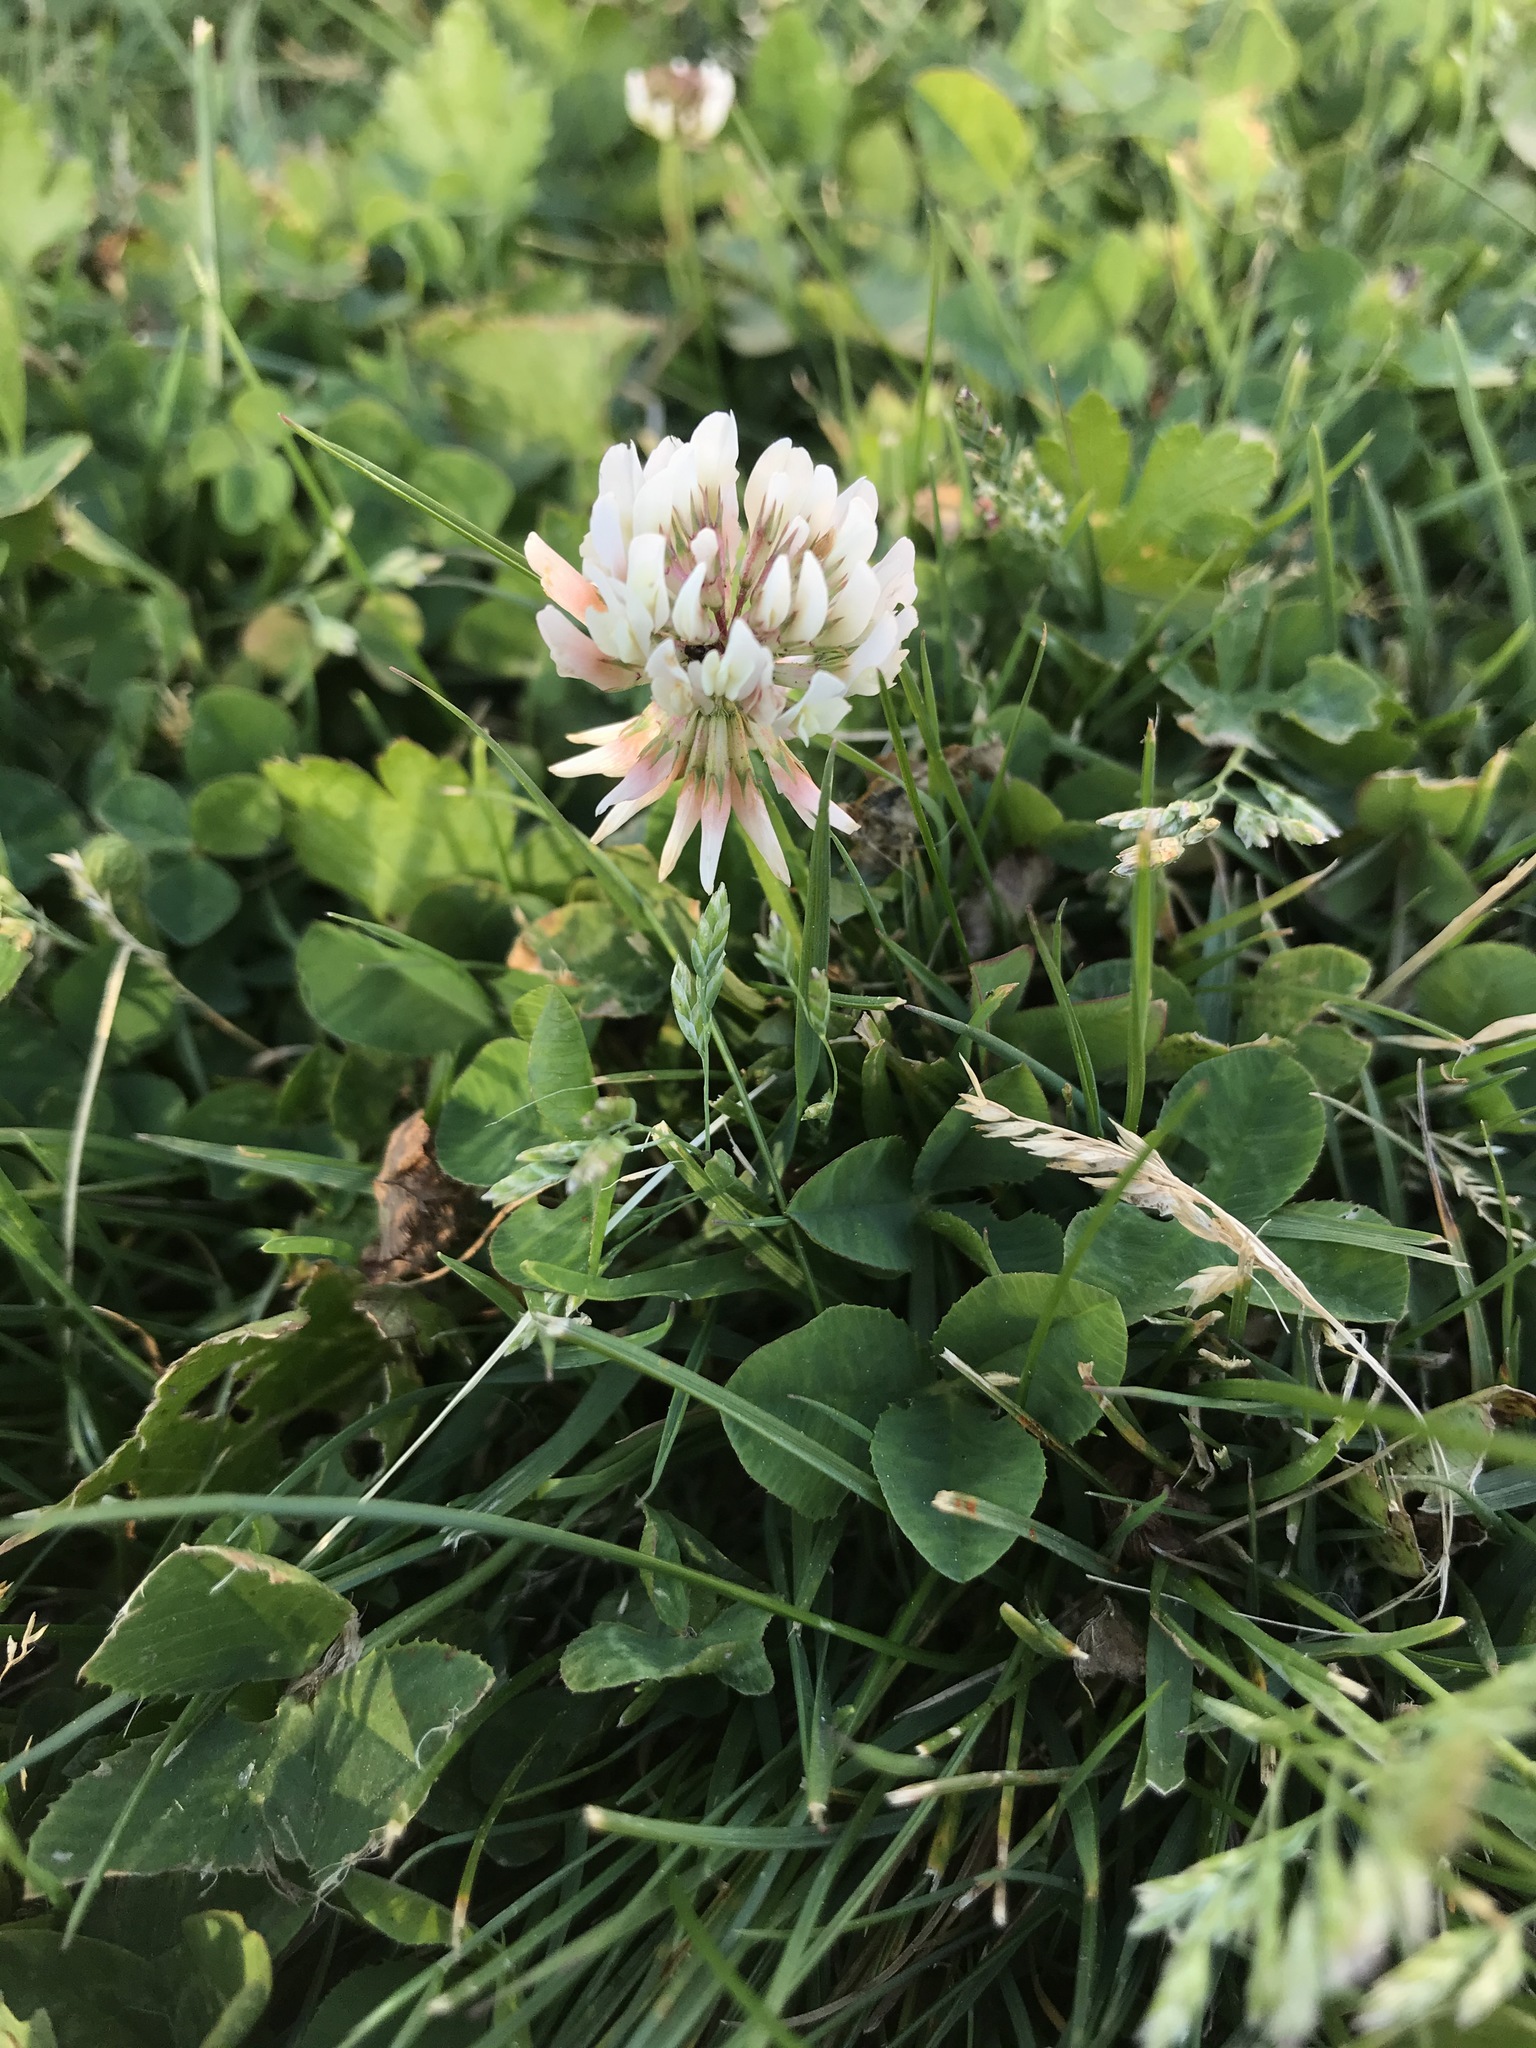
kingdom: Plantae
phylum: Tracheophyta
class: Magnoliopsida
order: Fabales
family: Fabaceae
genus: Trifolium
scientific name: Trifolium repens
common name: White clover
